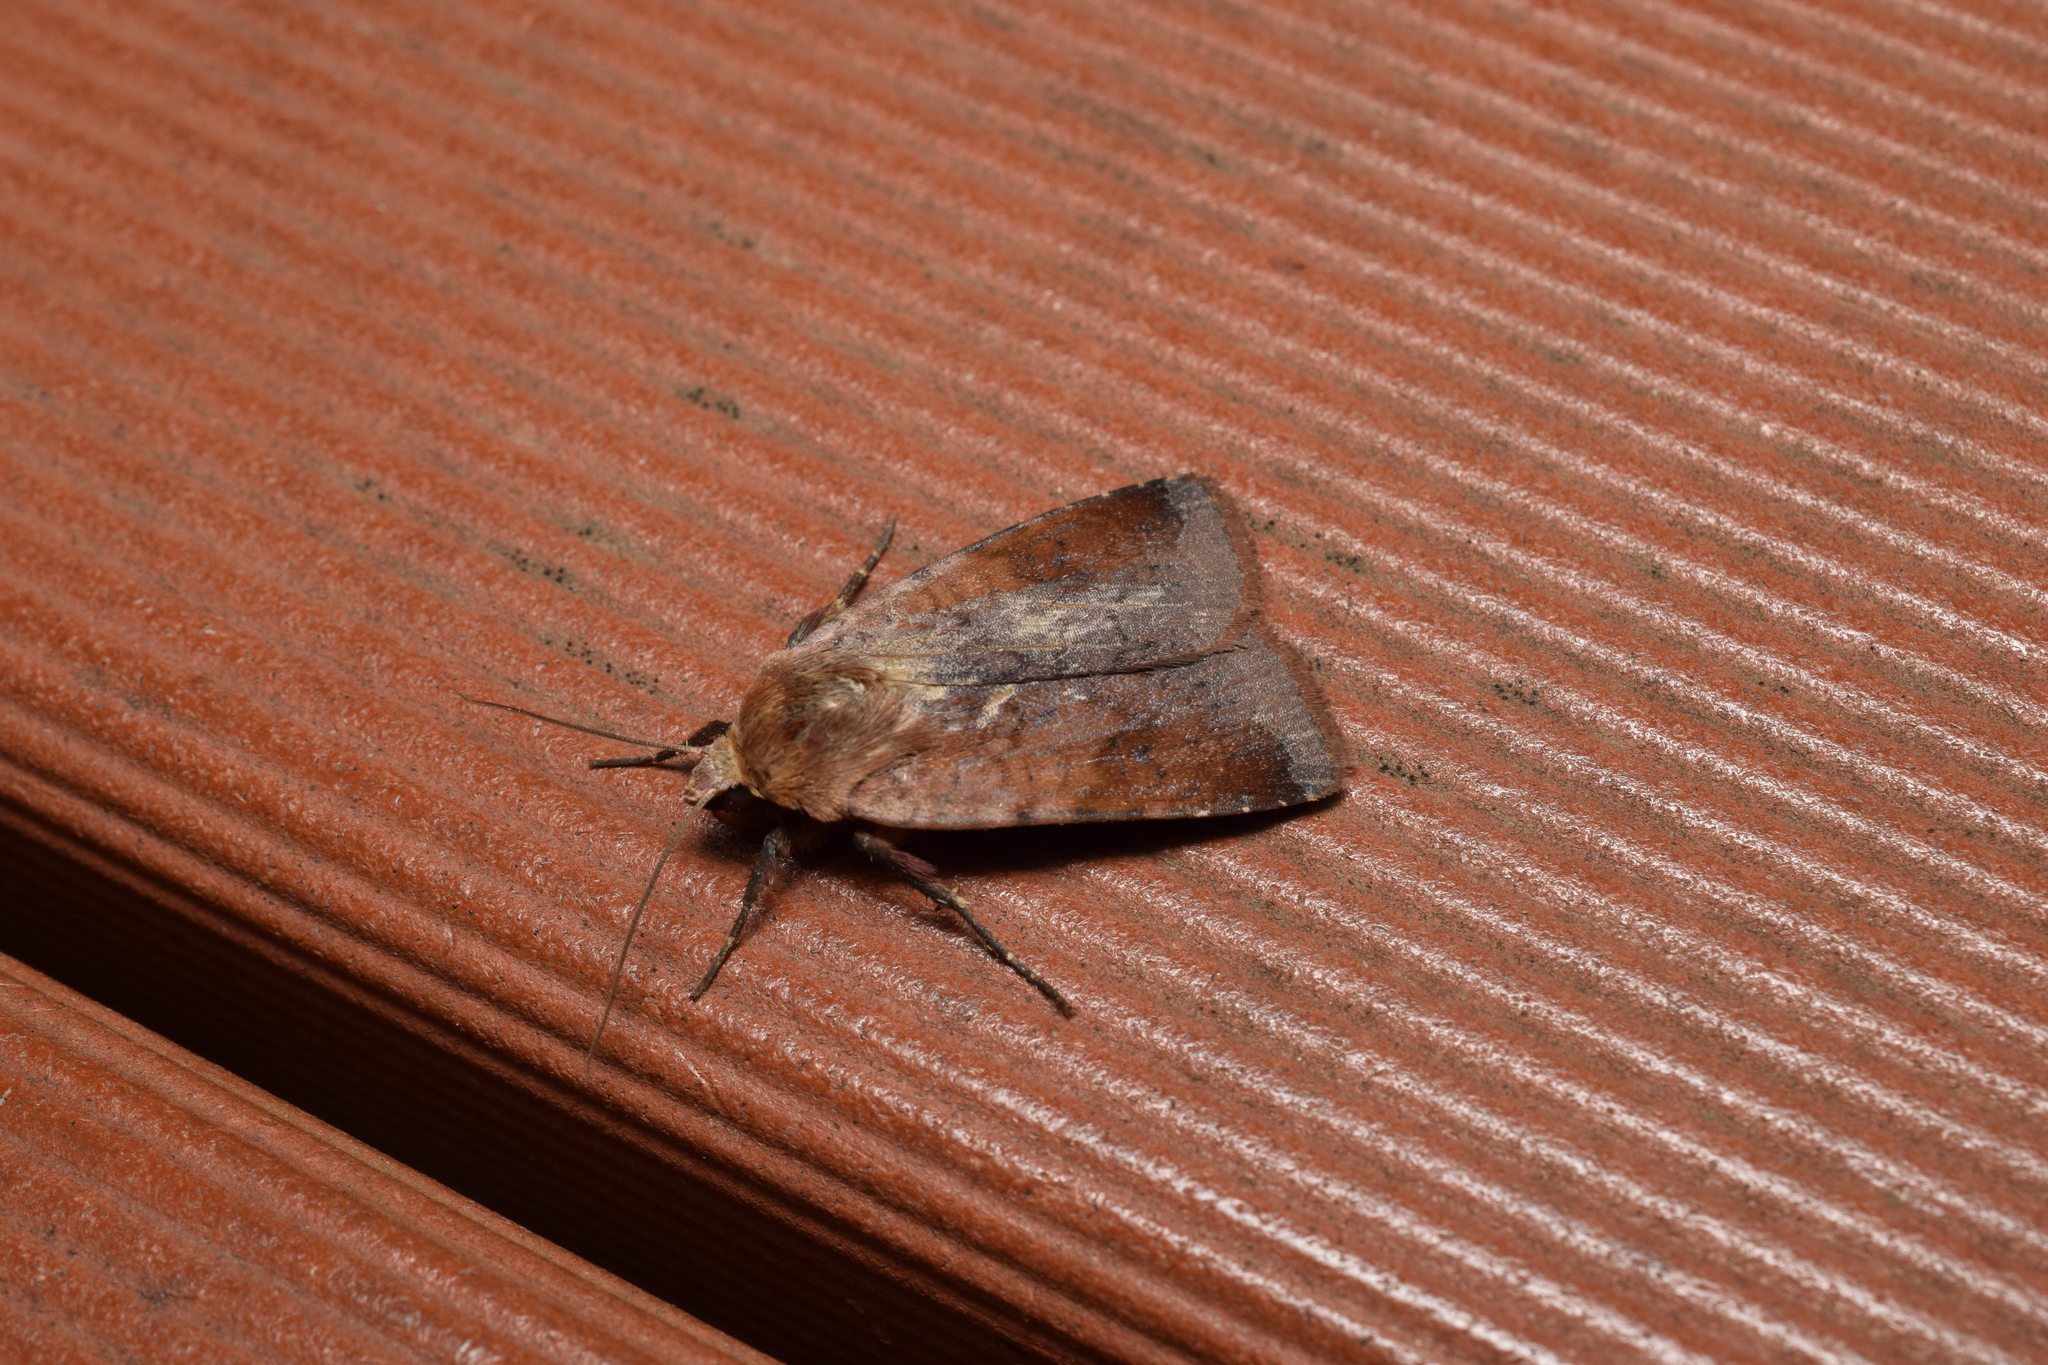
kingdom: Animalia
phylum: Arthropoda
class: Insecta
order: Lepidoptera
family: Noctuidae
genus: Diarsia
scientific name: Diarsia pacifica
